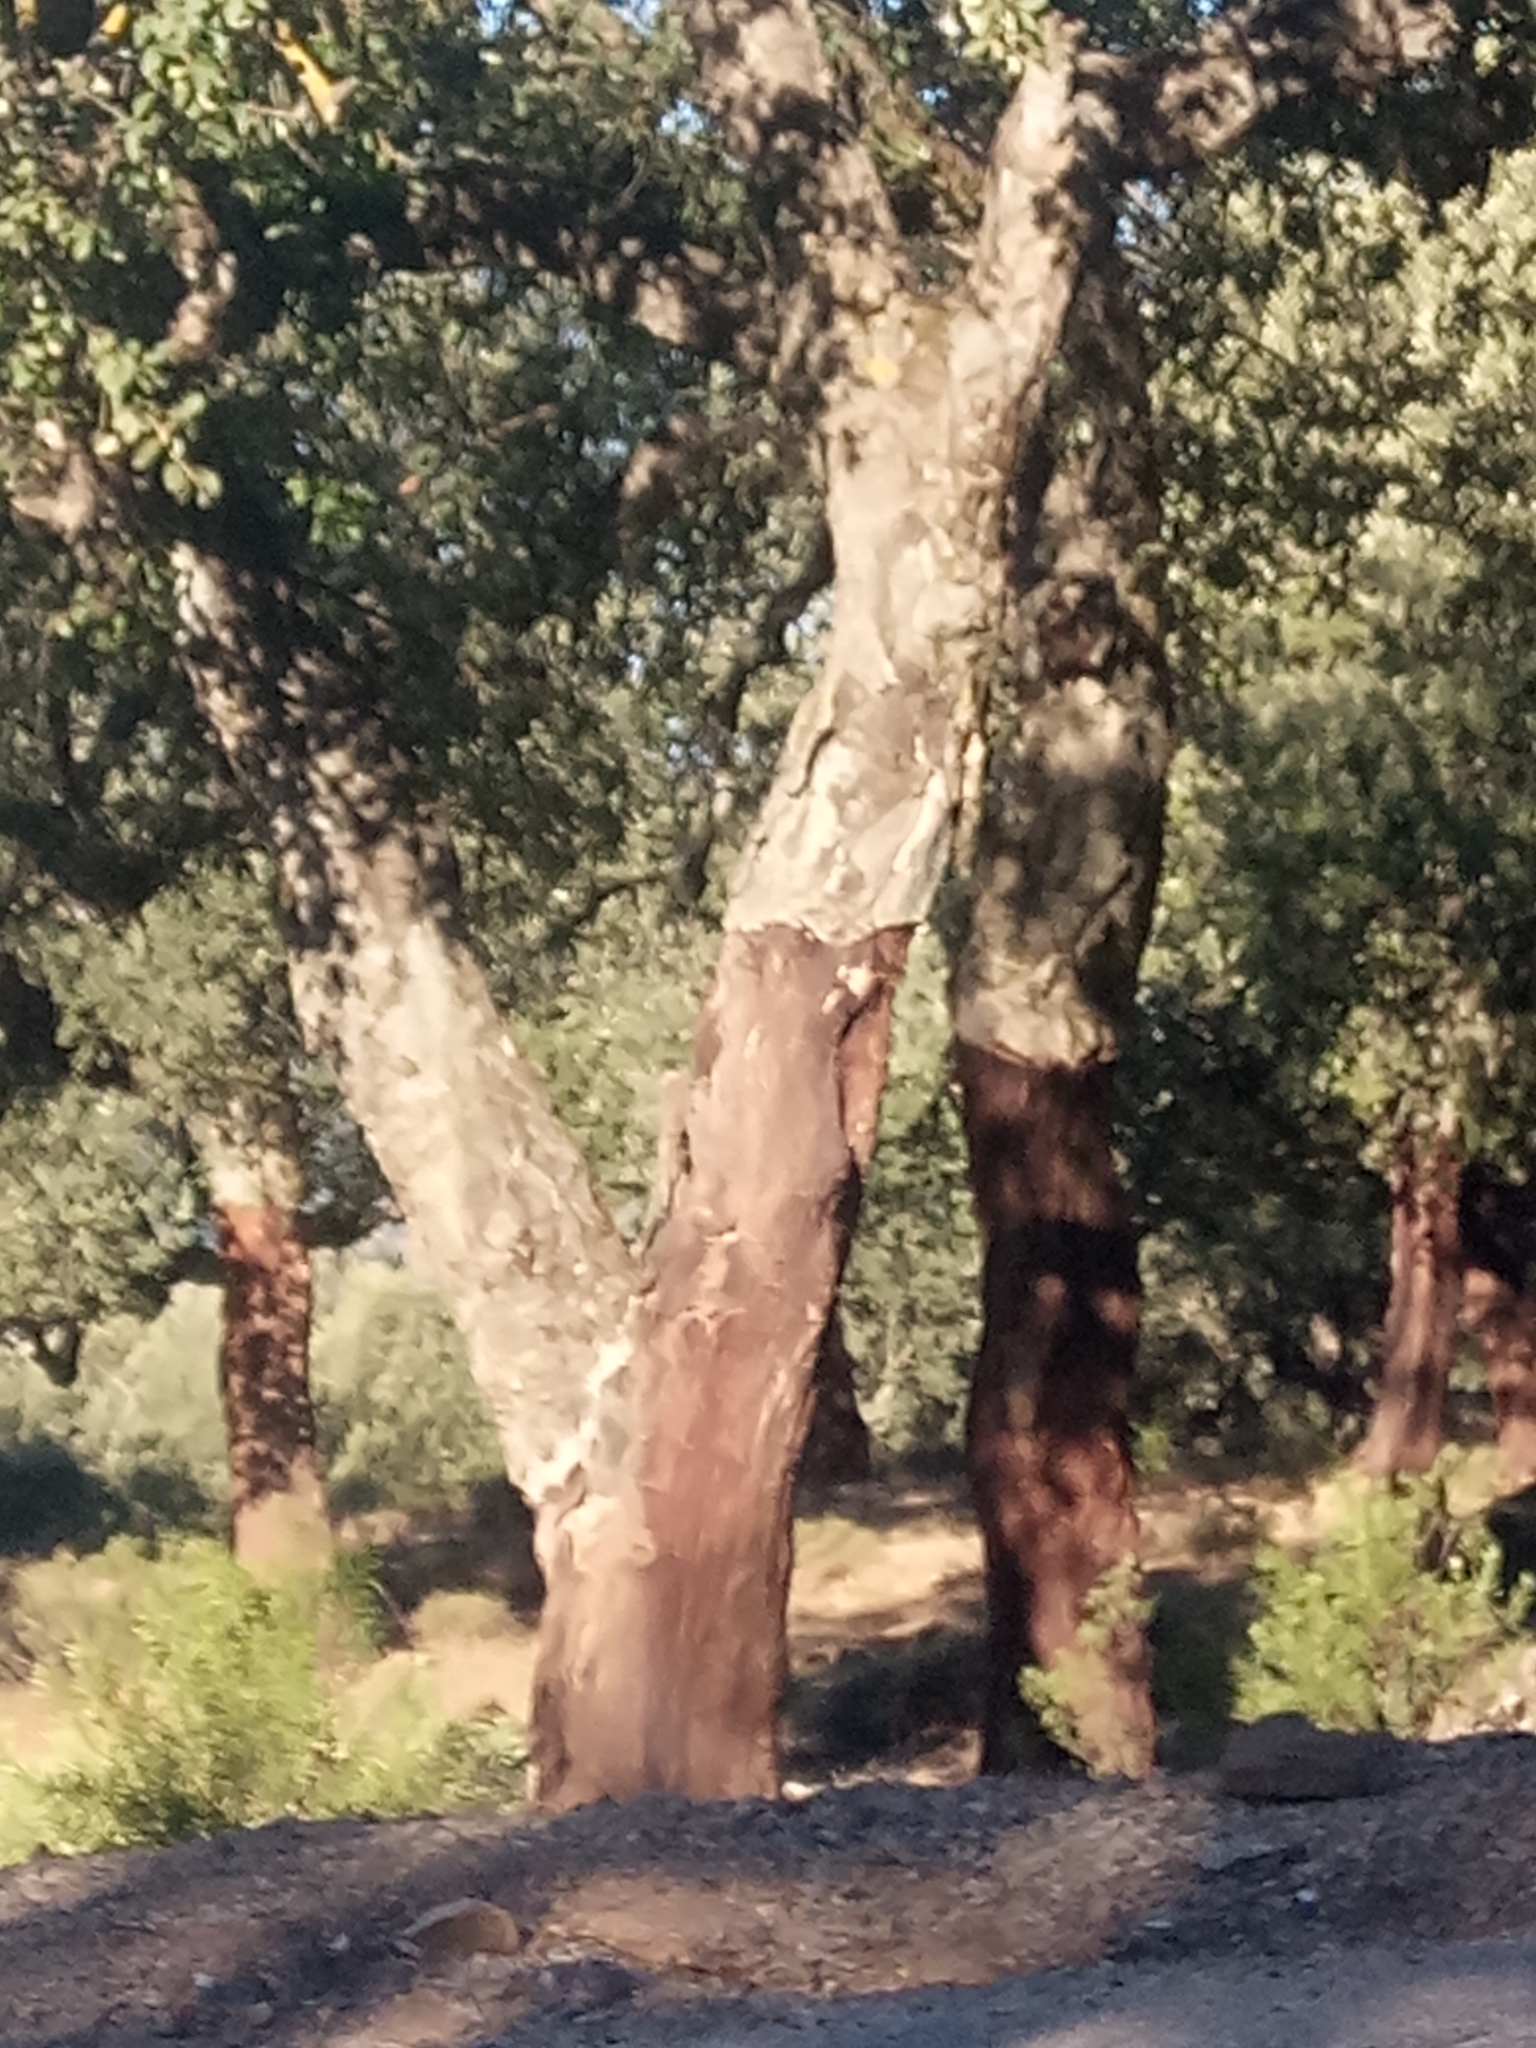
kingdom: Plantae
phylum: Tracheophyta
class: Magnoliopsida
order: Fagales
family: Fagaceae
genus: Quercus
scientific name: Quercus suber
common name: Cork oak
